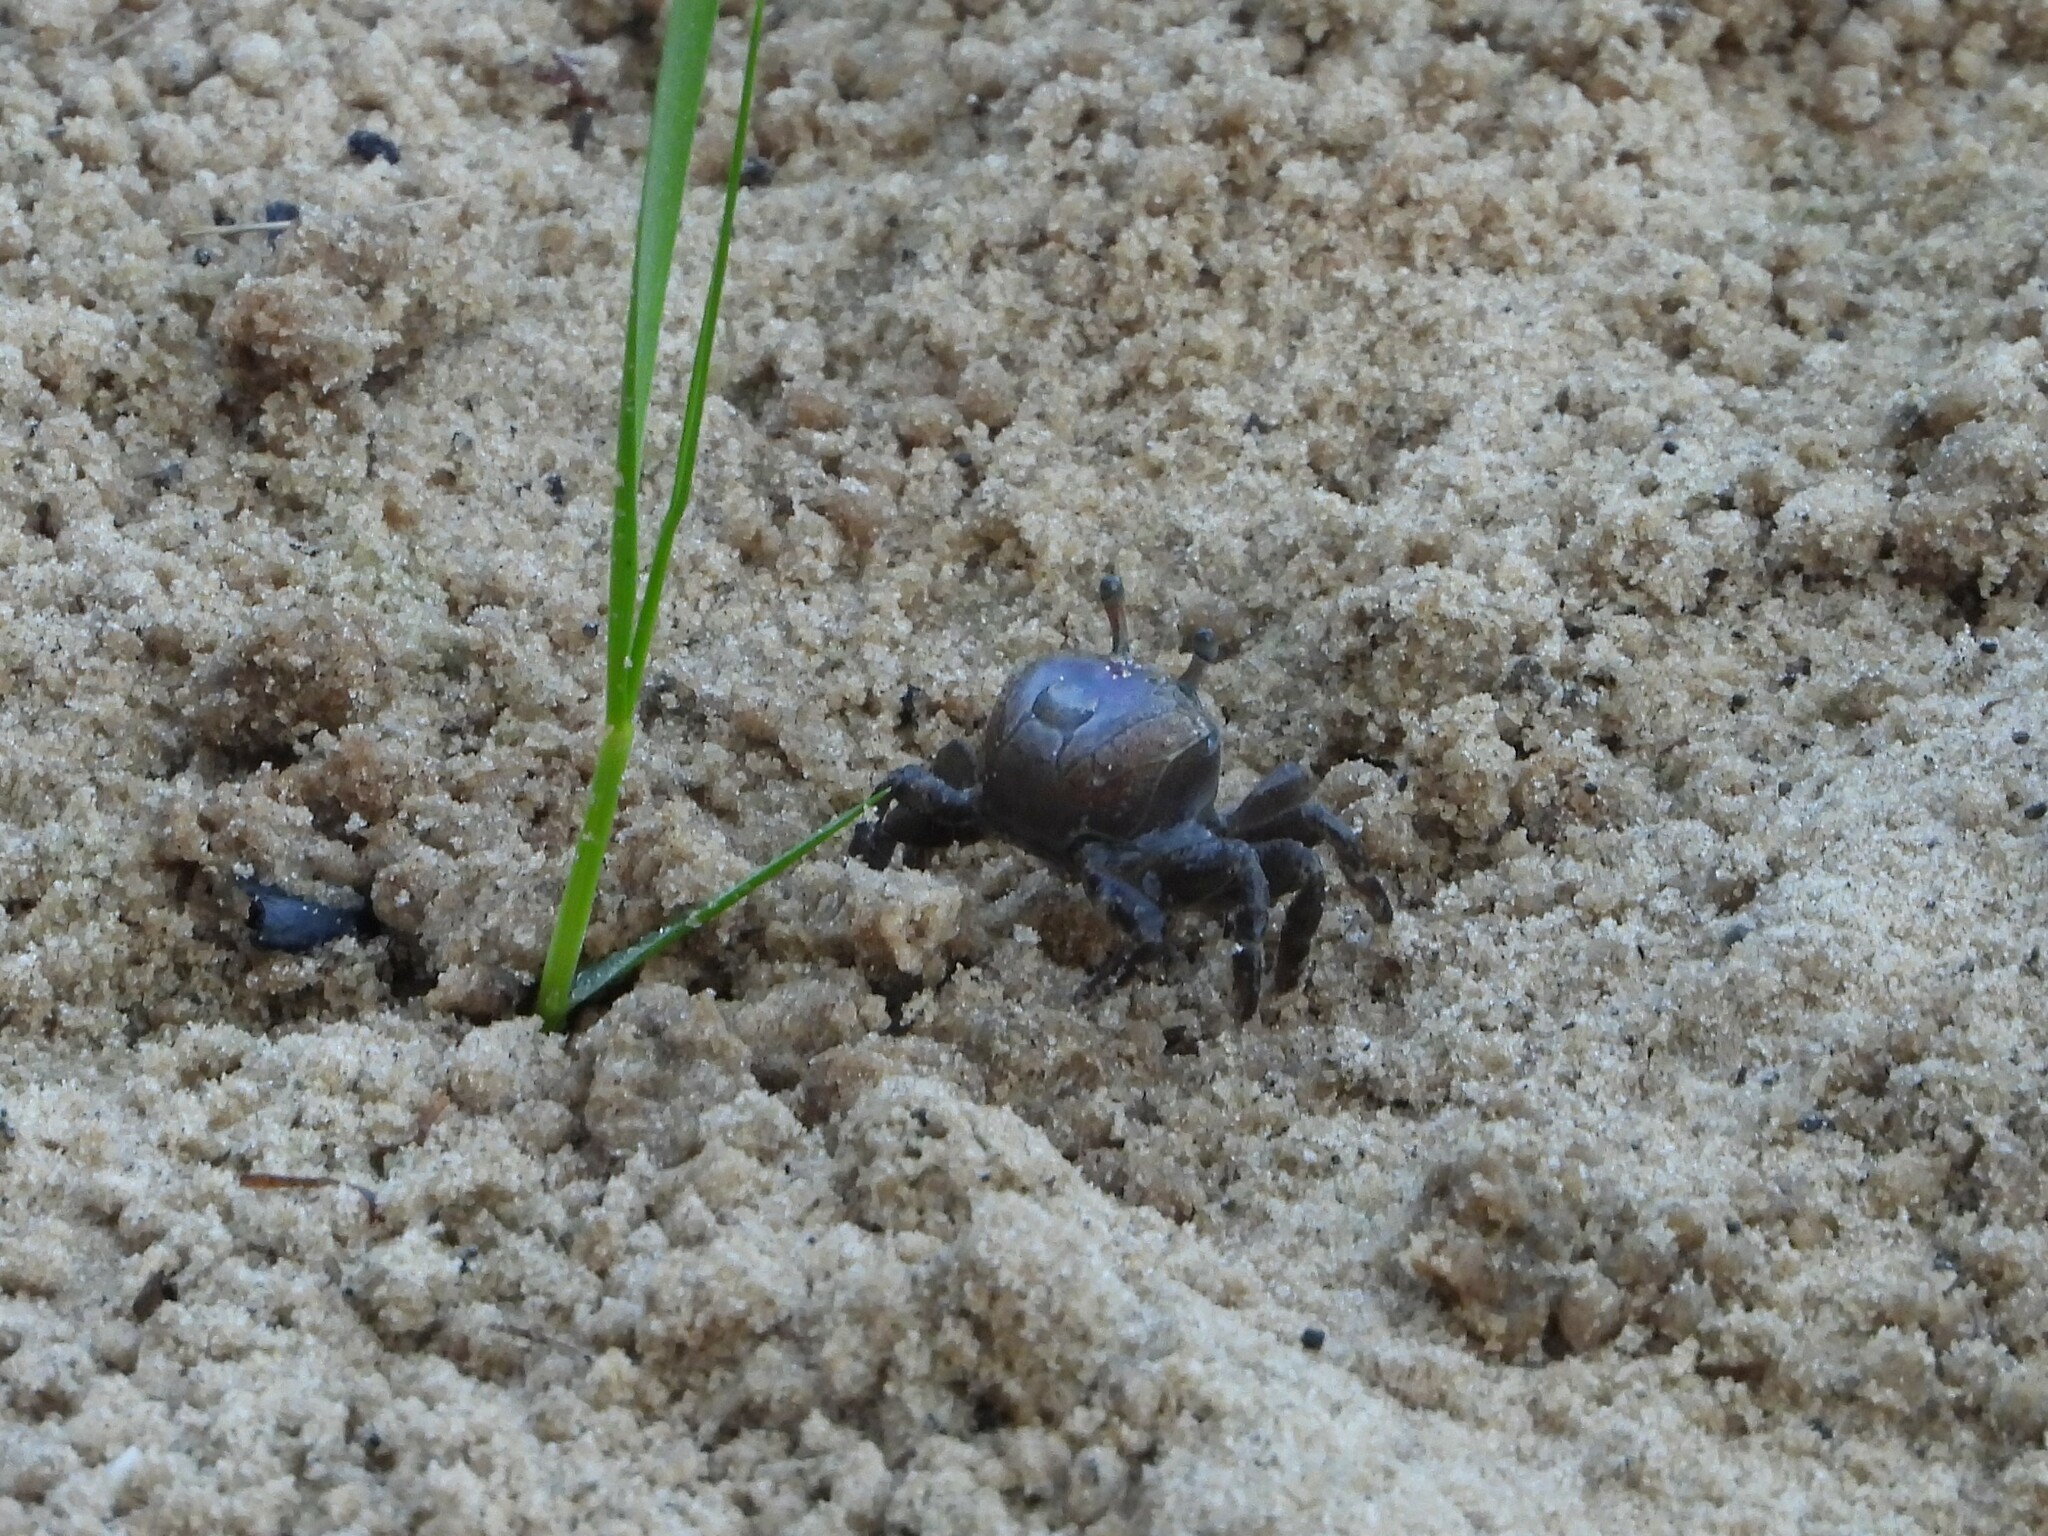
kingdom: Animalia
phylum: Arthropoda
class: Malacostraca
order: Decapoda
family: Ocypodidae
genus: Leptuca
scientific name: Leptuca pugilator
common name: Atlantic sand fiddler crab
